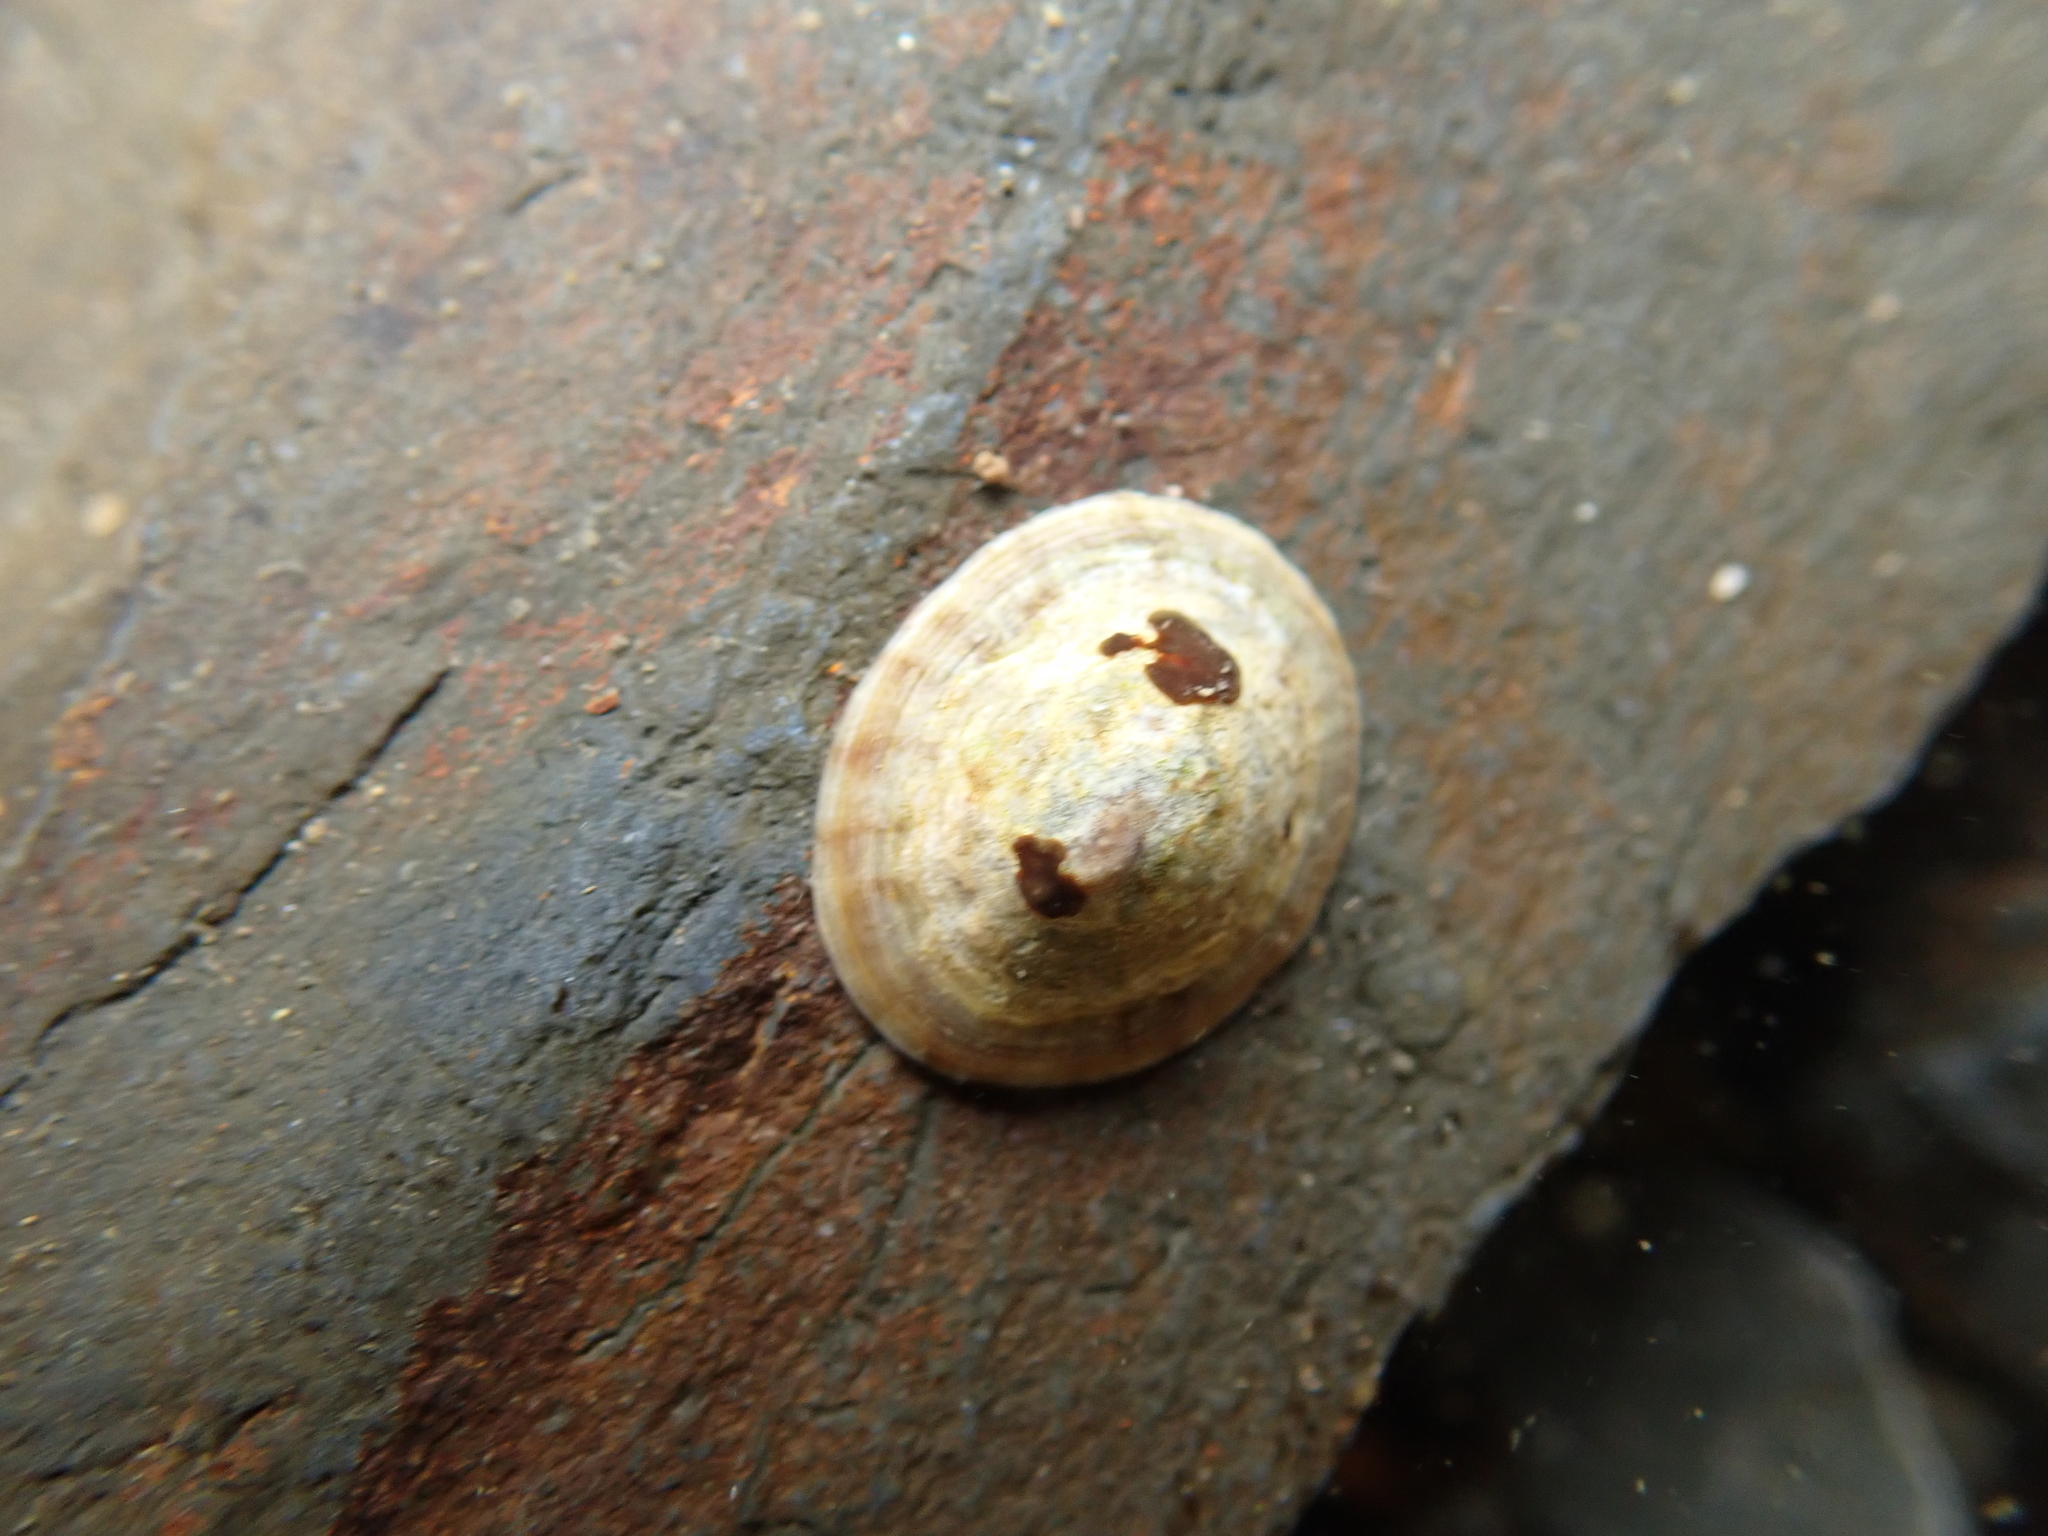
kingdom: Animalia
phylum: Mollusca
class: Gastropoda
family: Lottiidae
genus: Testudinalia
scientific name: Testudinalia testudinalis
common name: Common tortoiseshell limpet
